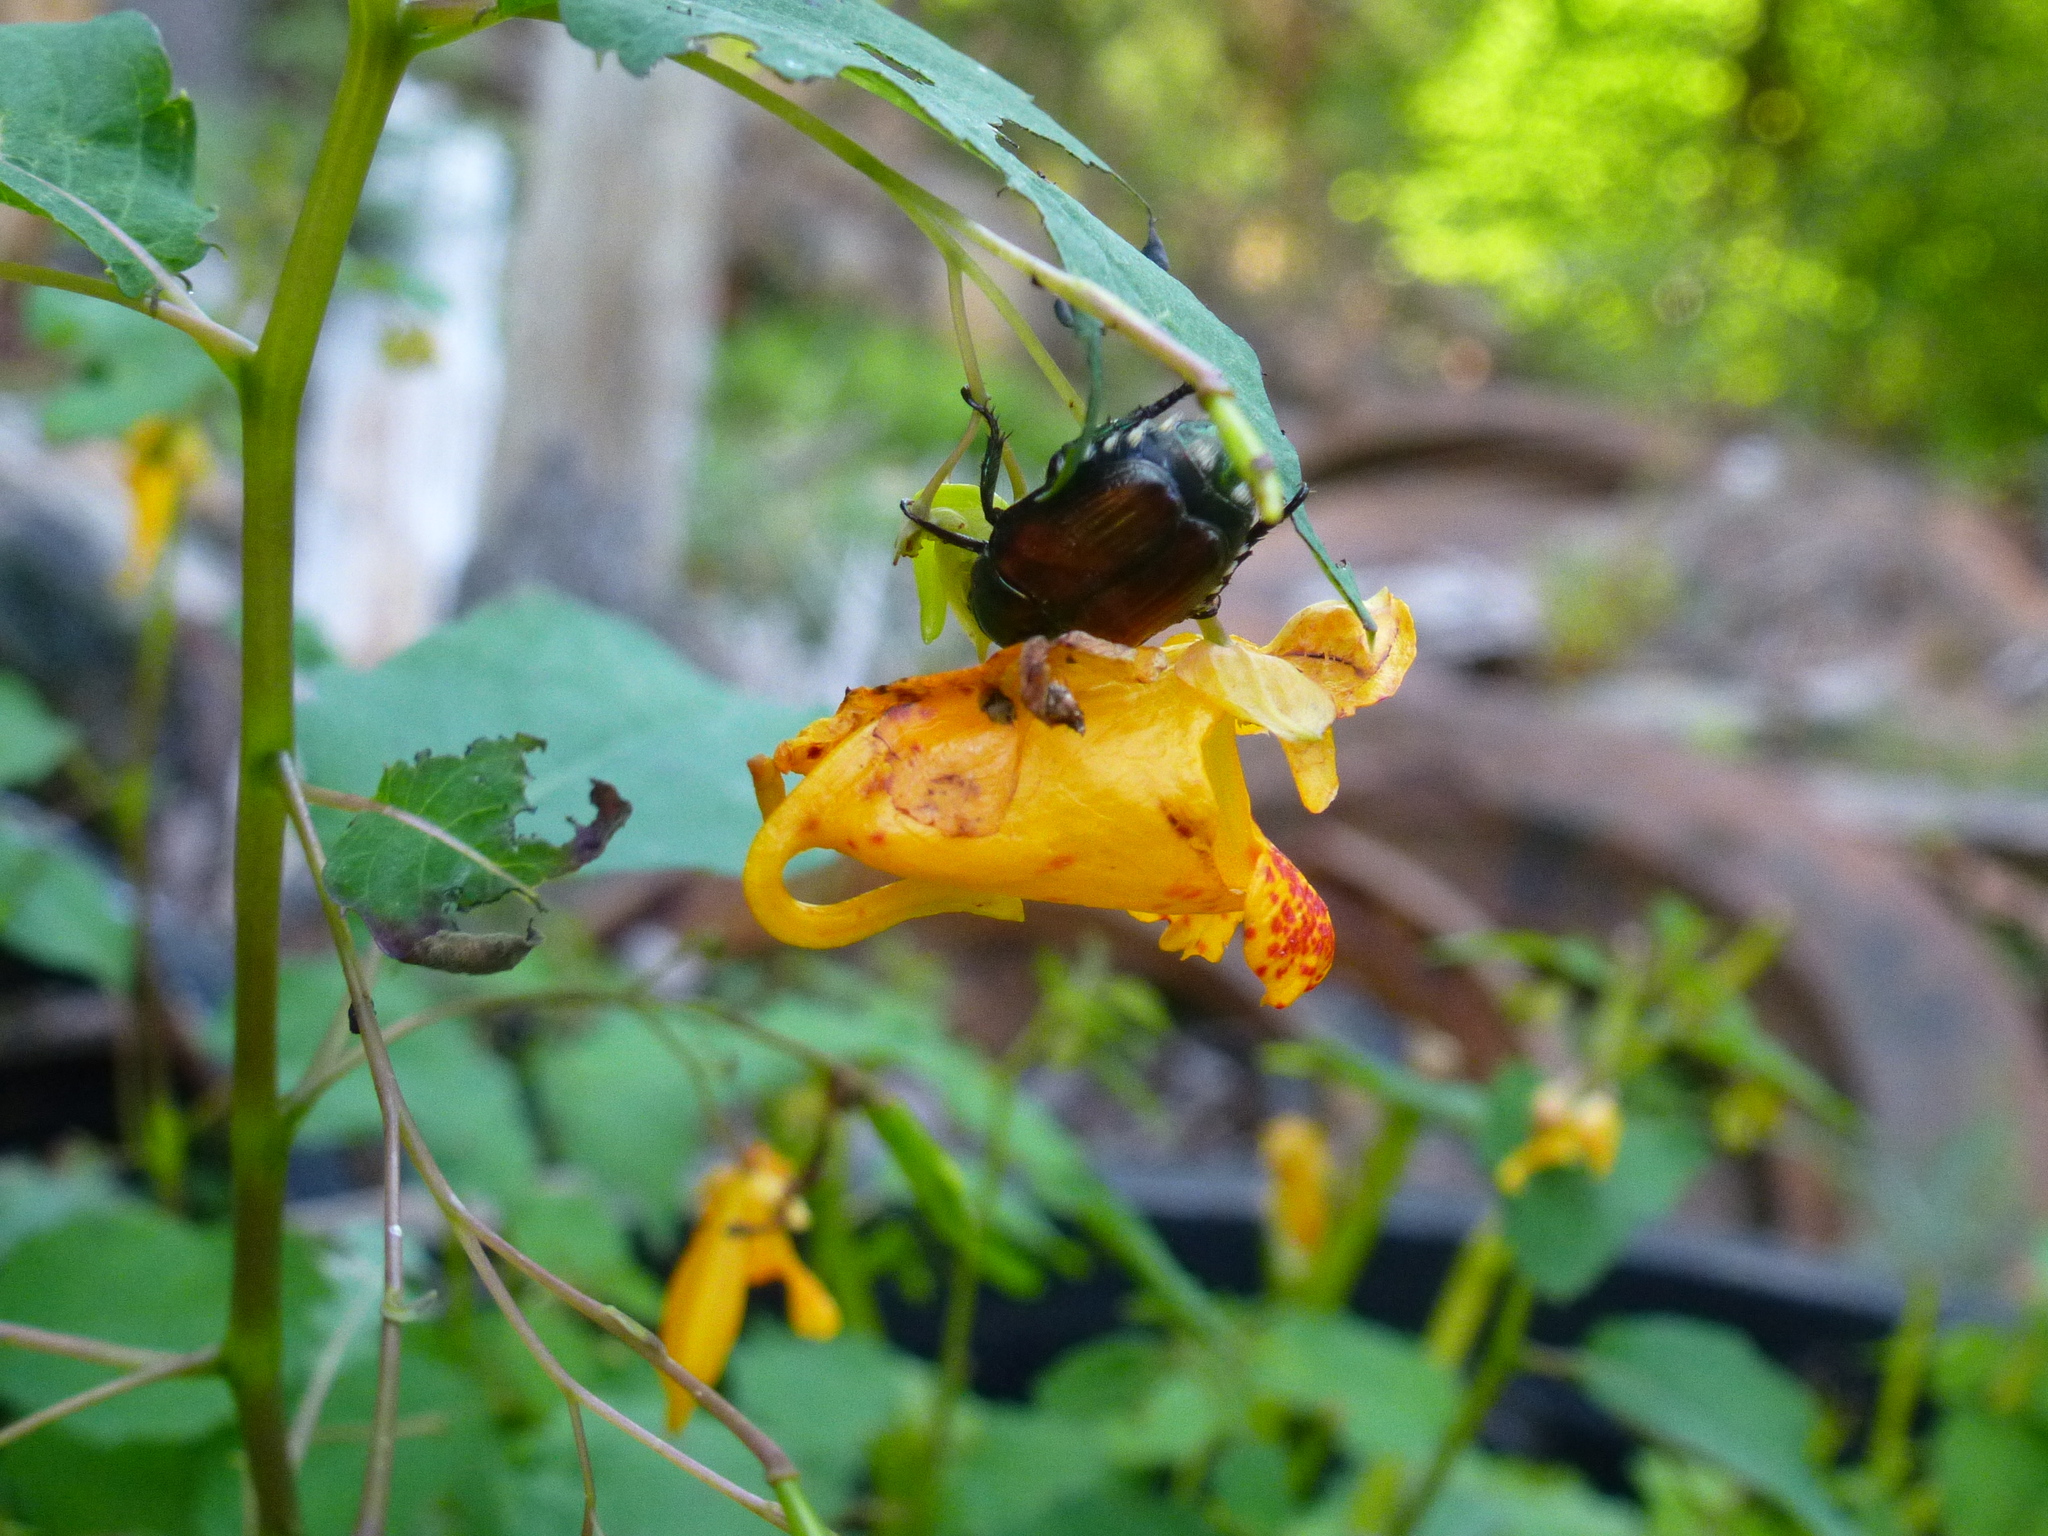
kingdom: Animalia
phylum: Arthropoda
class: Insecta
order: Coleoptera
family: Scarabaeidae
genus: Popillia
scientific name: Popillia japonica
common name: Japanese beetle
